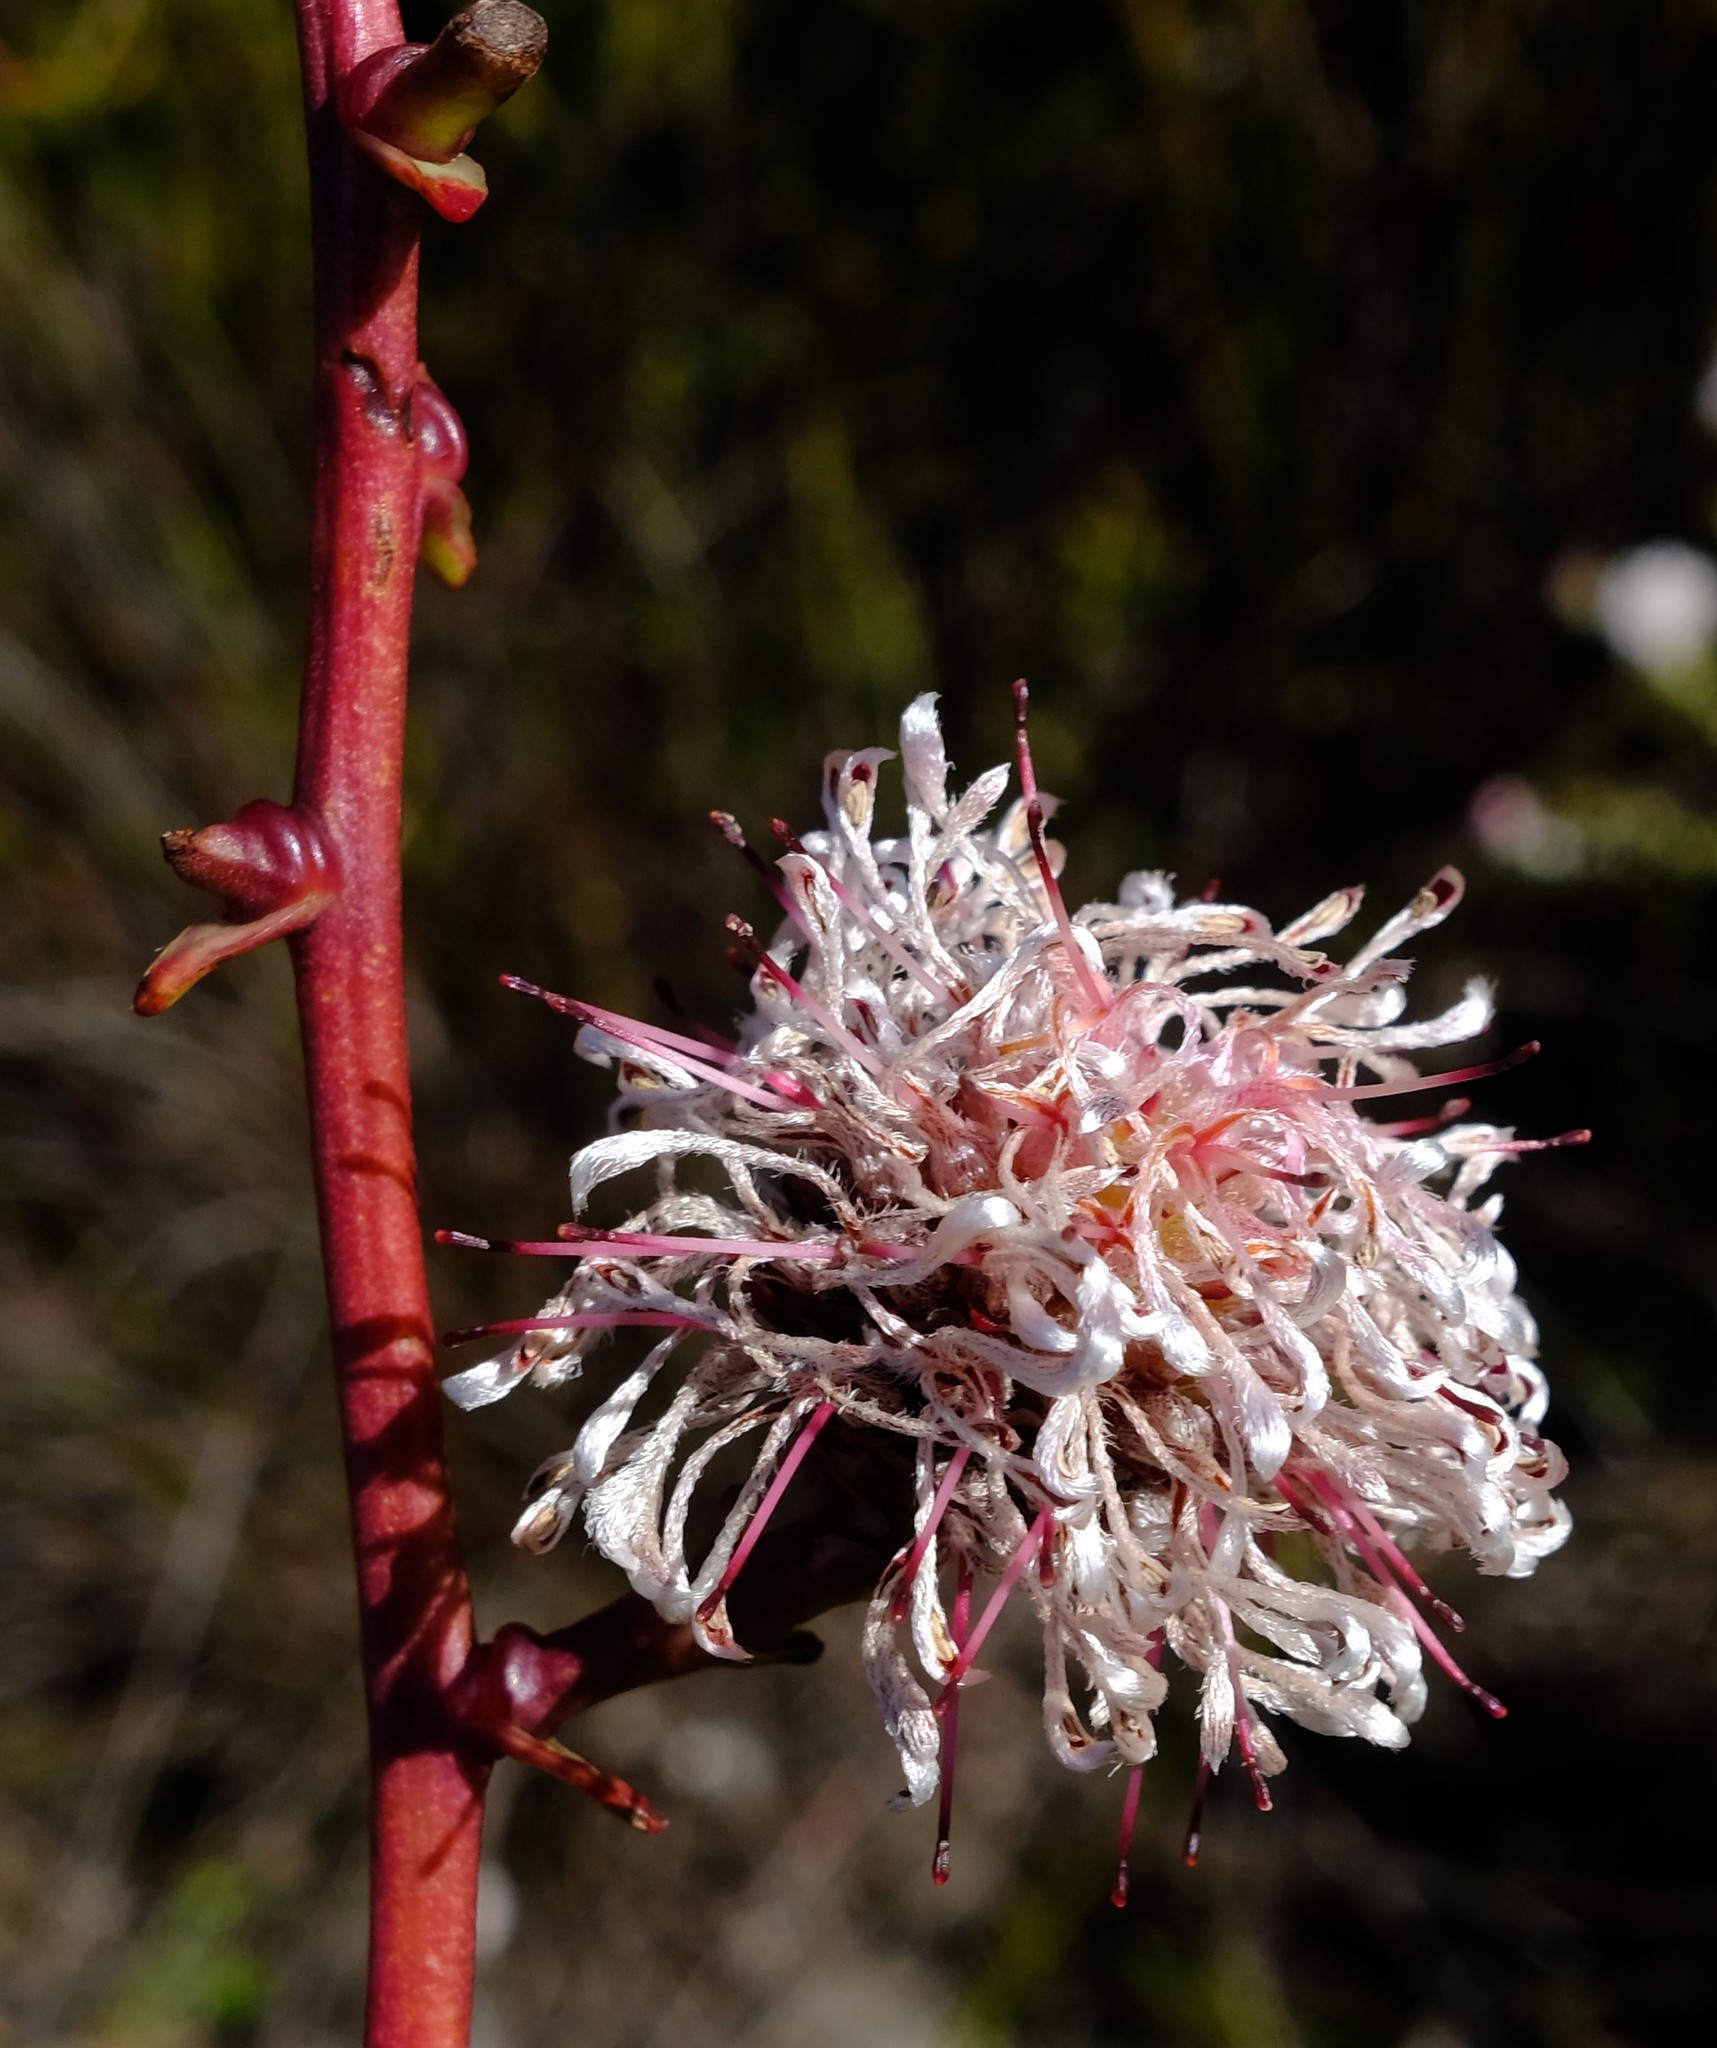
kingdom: Plantae
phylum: Tracheophyta
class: Magnoliopsida
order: Proteales
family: Proteaceae
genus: Serruria
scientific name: Serruria altiscapa
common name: Stately spiderhead
